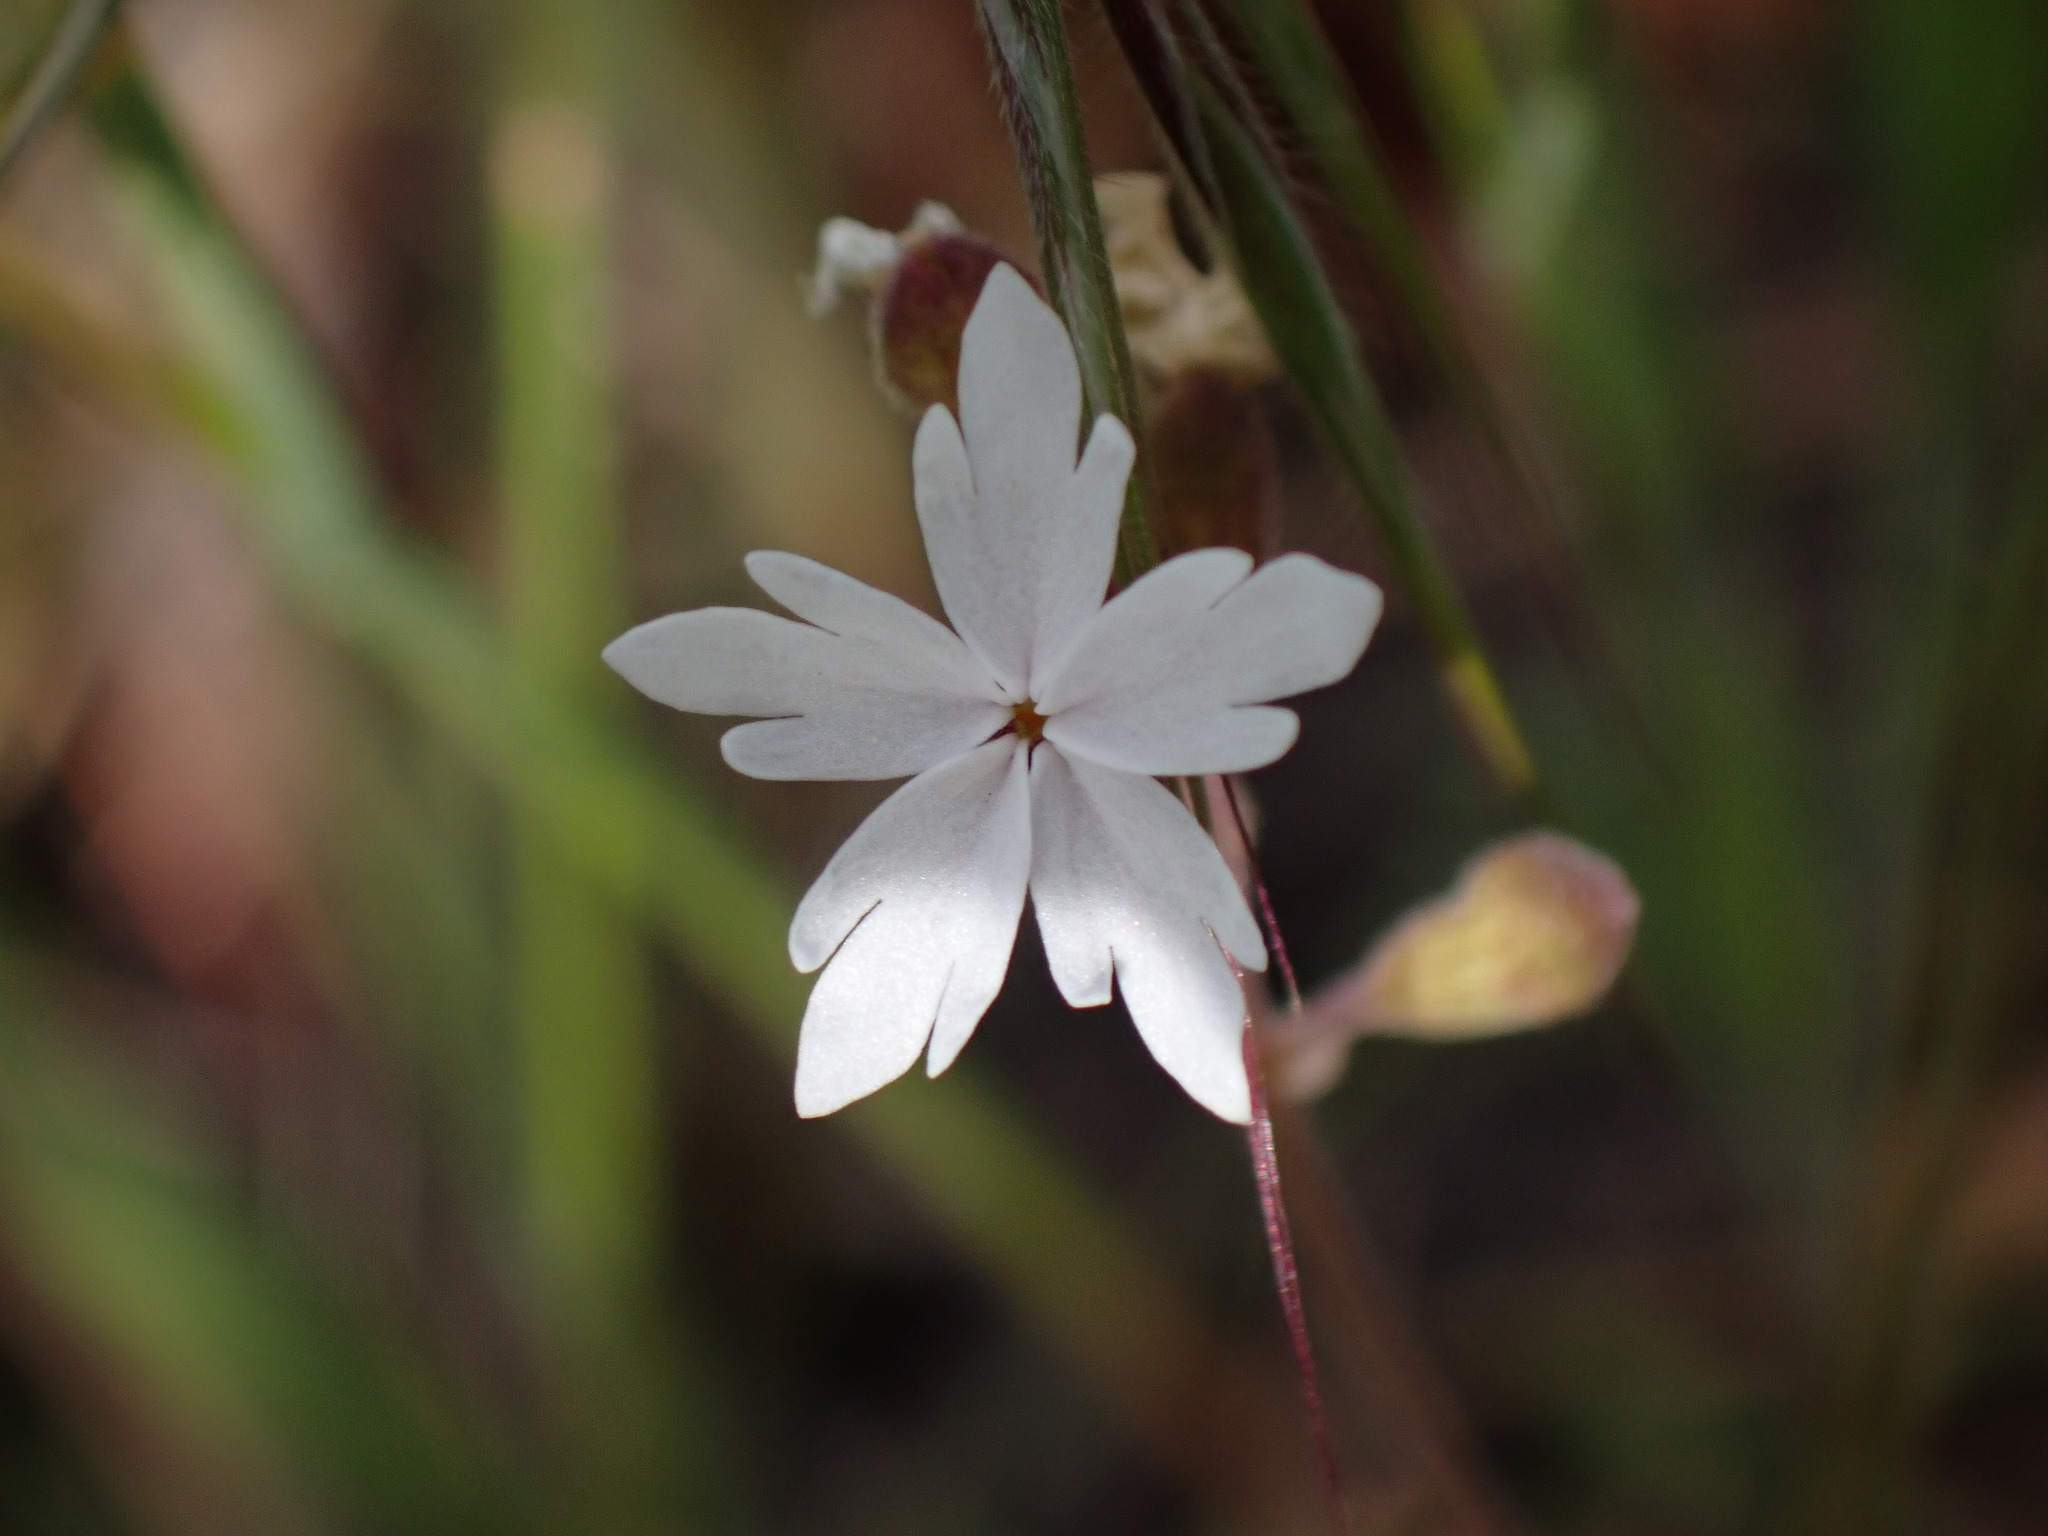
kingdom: Plantae
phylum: Tracheophyta
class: Magnoliopsida
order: Saxifragales
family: Saxifragaceae
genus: Lithophragma
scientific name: Lithophragma parviflorum
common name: Small-flowered fringe-cup
